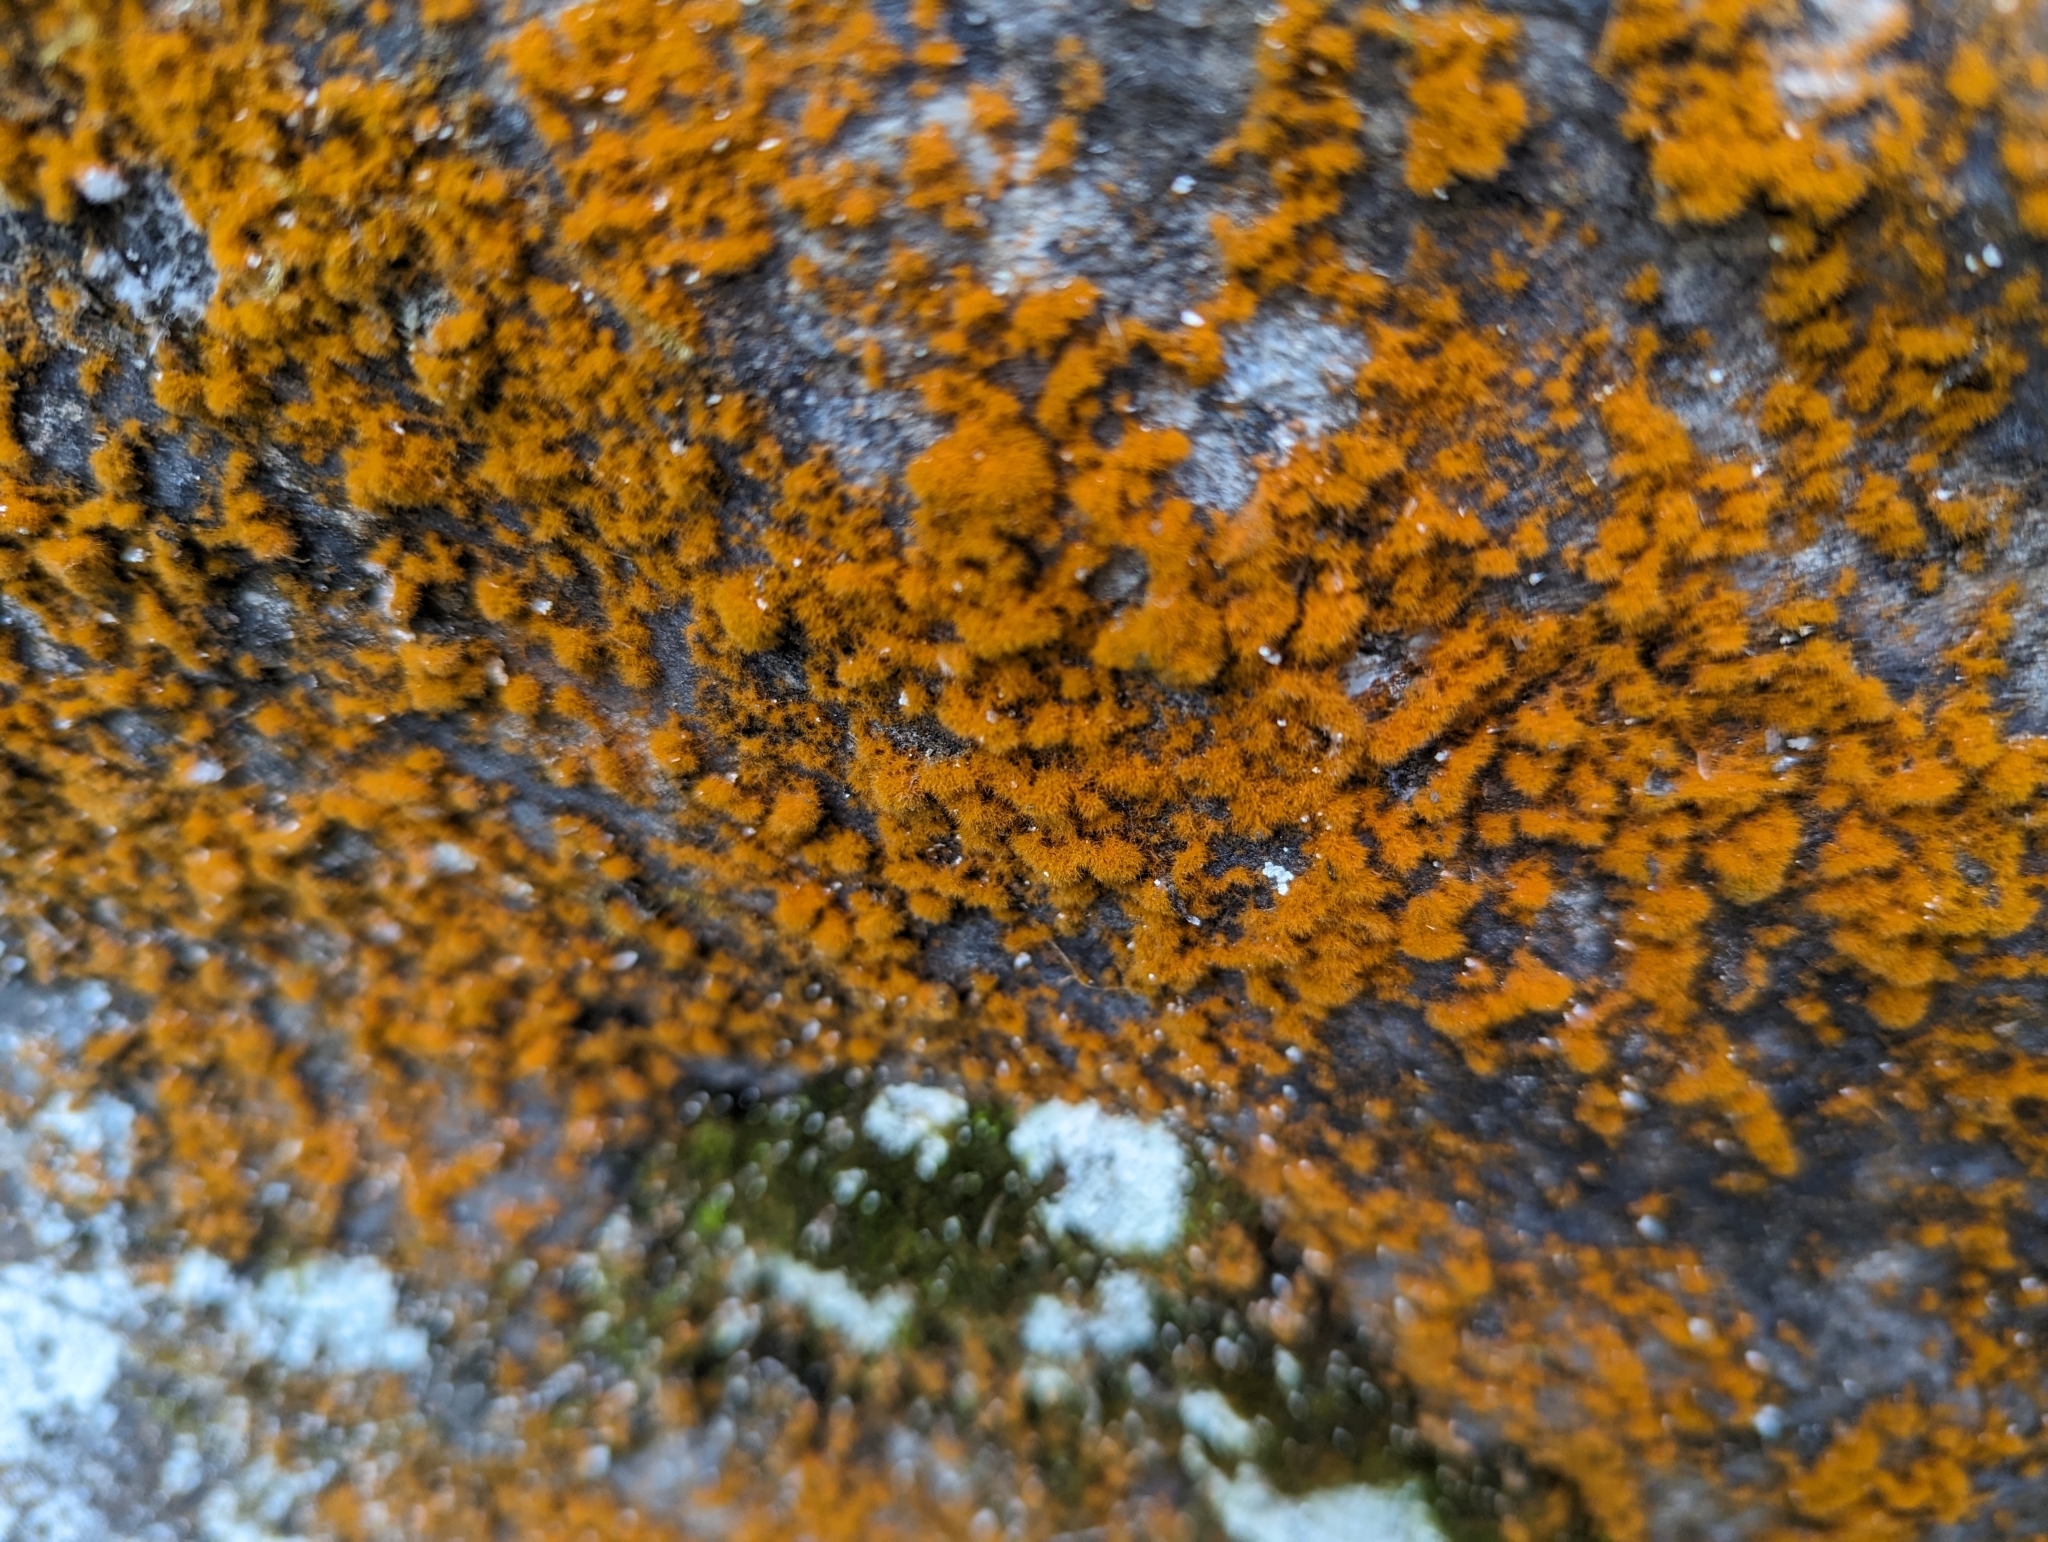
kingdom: Plantae
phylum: Chlorophyta
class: Ulvophyceae
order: Trentepohliales
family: Trentepohliaceae
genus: Trentepohlia
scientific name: Trentepohlia aurea
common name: Orange rock hair
